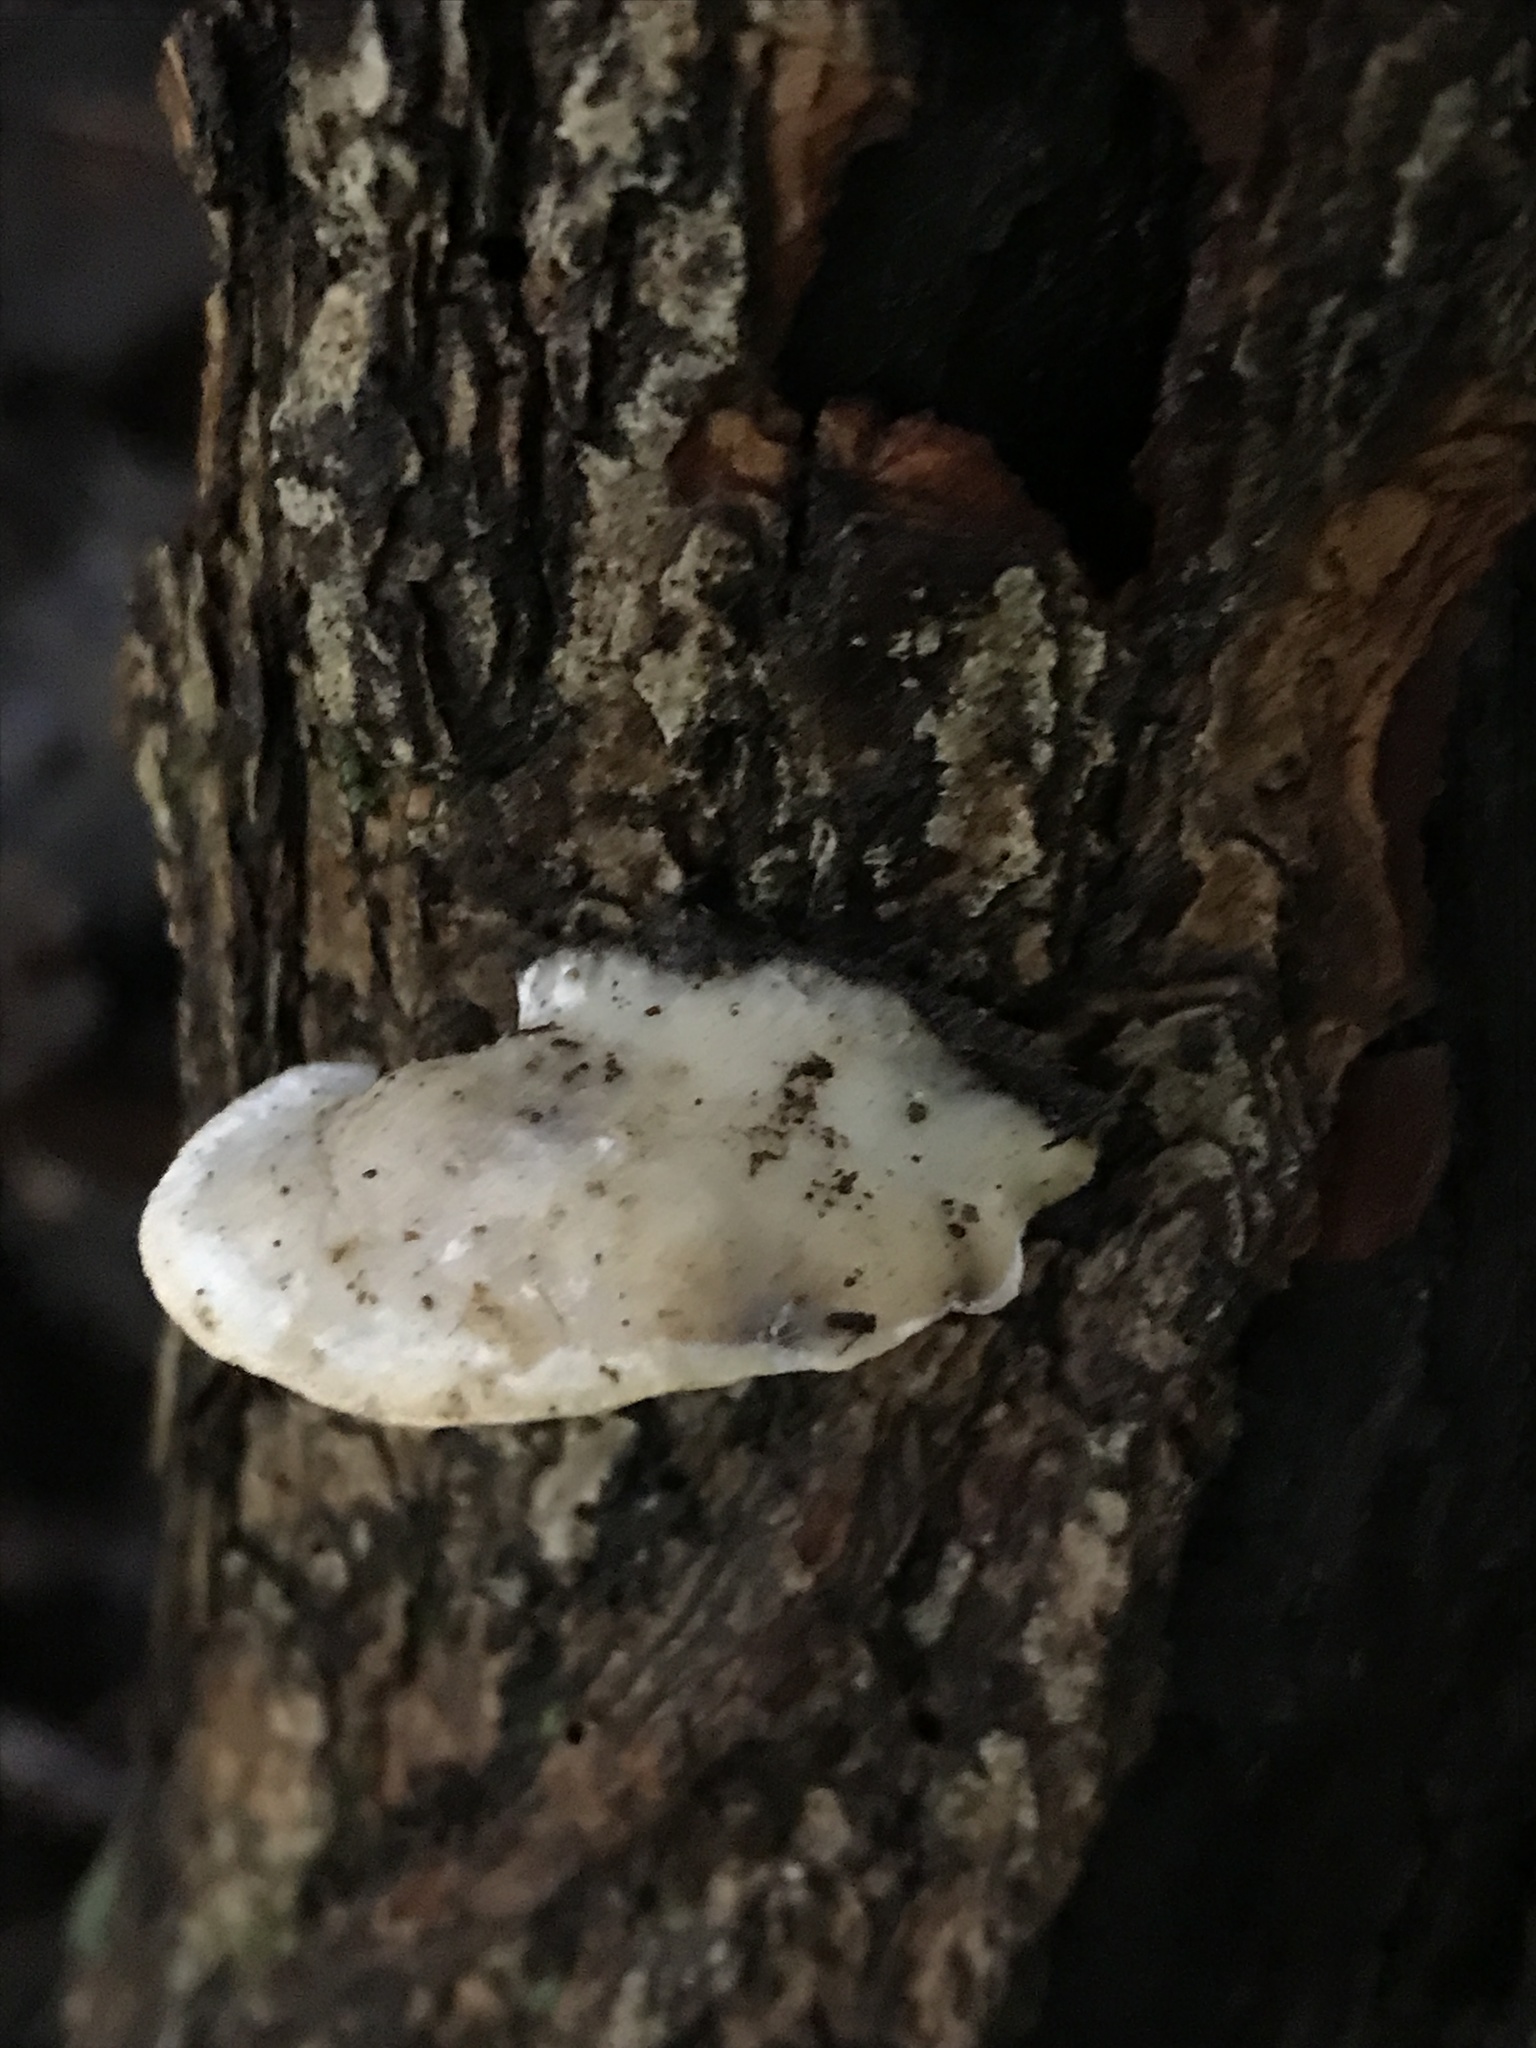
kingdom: Fungi
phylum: Basidiomycota
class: Agaricomycetes
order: Polyporales
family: Polyporaceae
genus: Trametes
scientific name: Trametes gibbosa
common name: Lumpy bracket
